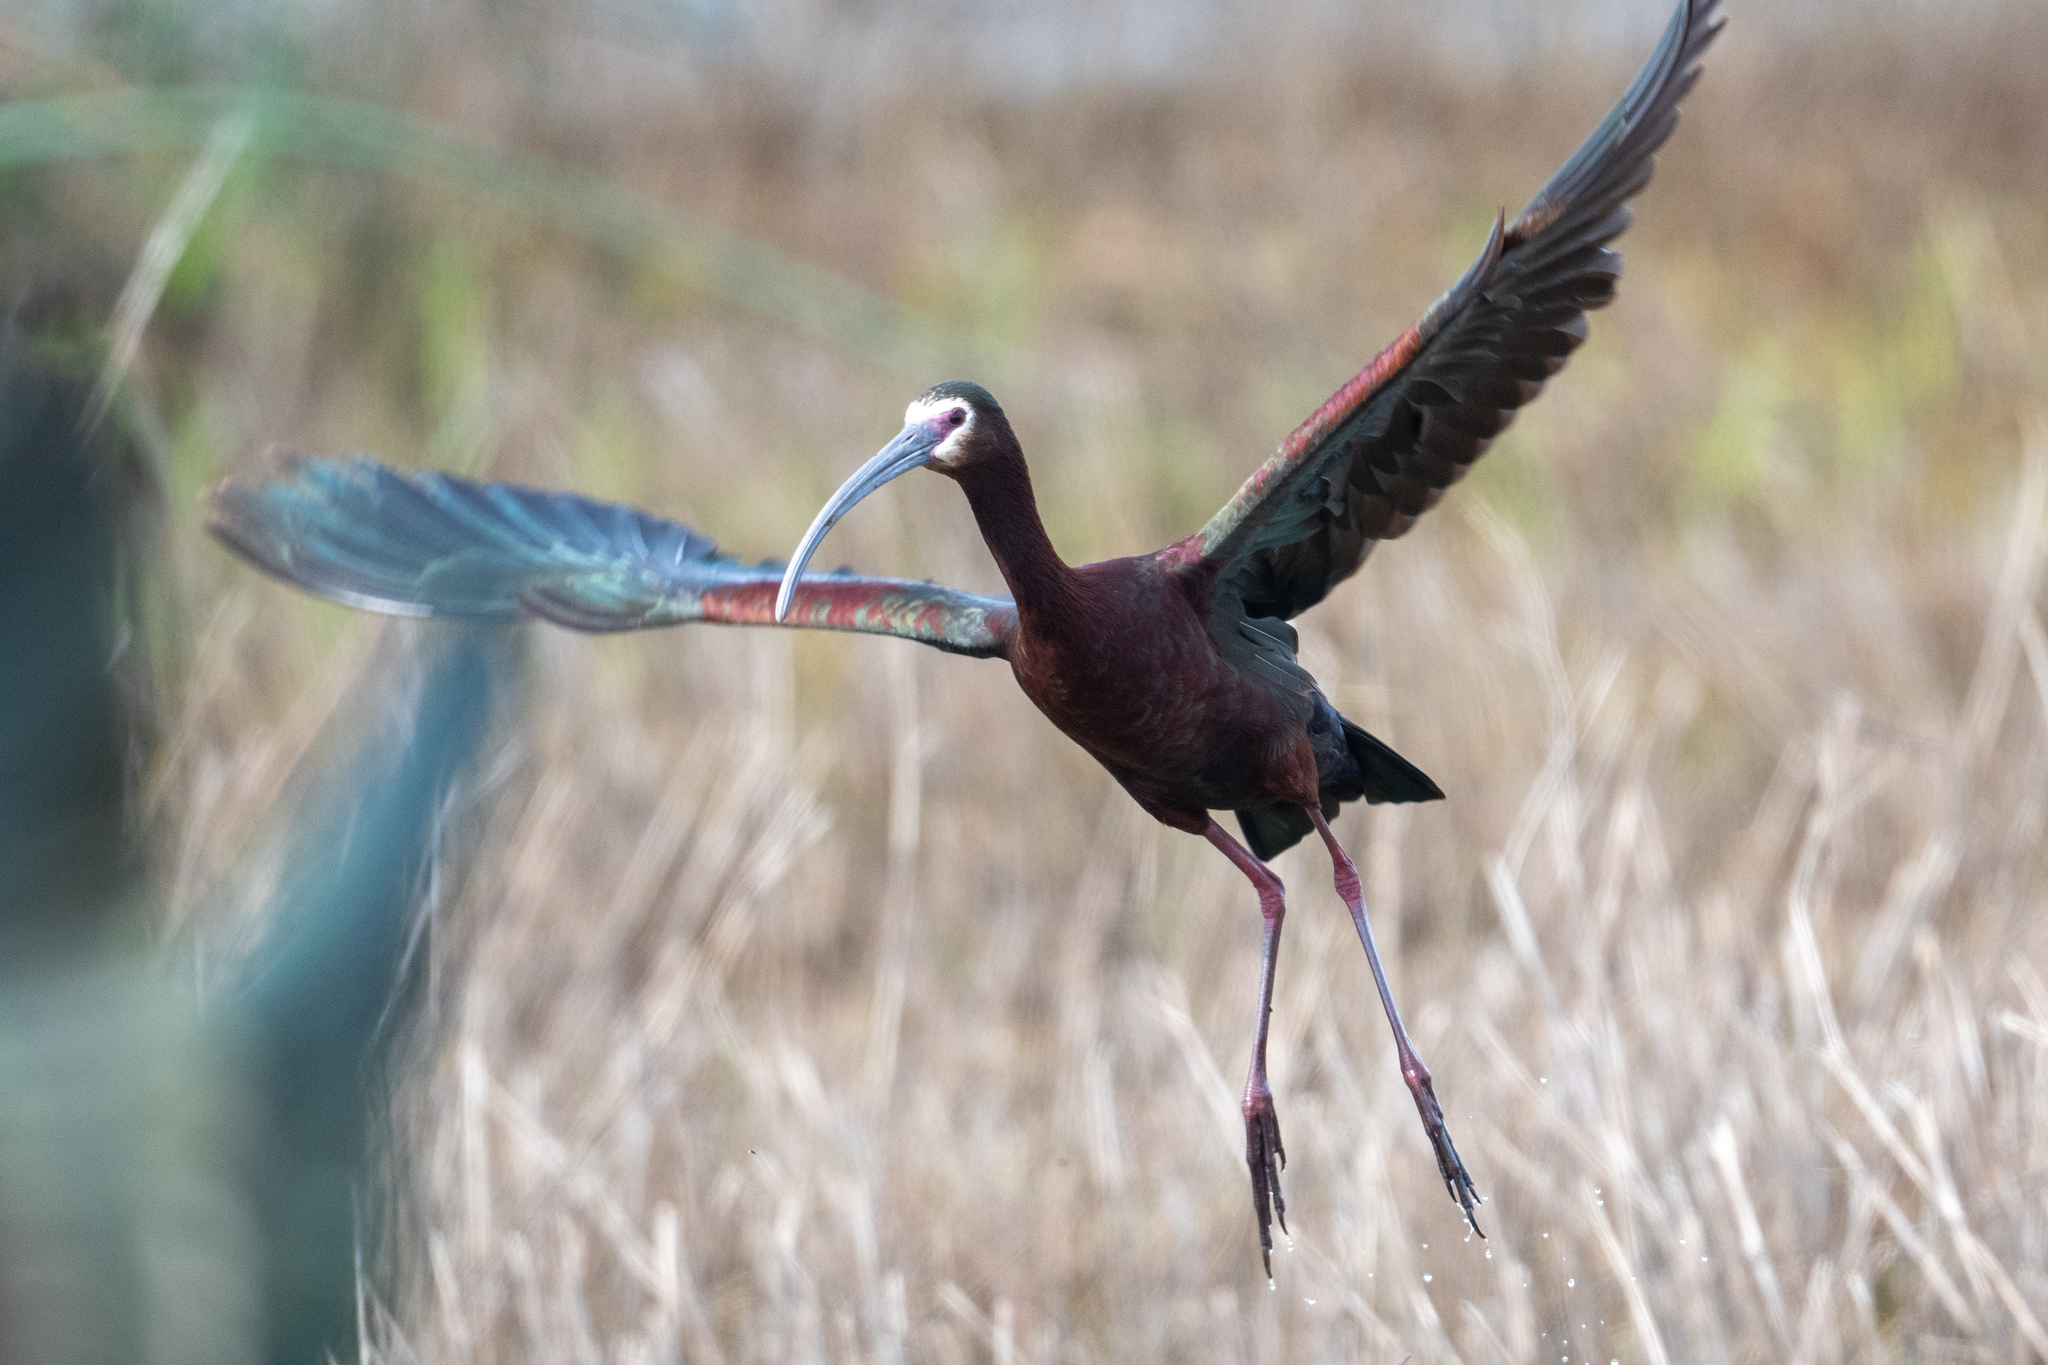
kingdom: Animalia
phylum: Chordata
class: Aves
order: Pelecaniformes
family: Threskiornithidae
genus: Plegadis
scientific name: Plegadis chihi
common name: White-faced ibis
